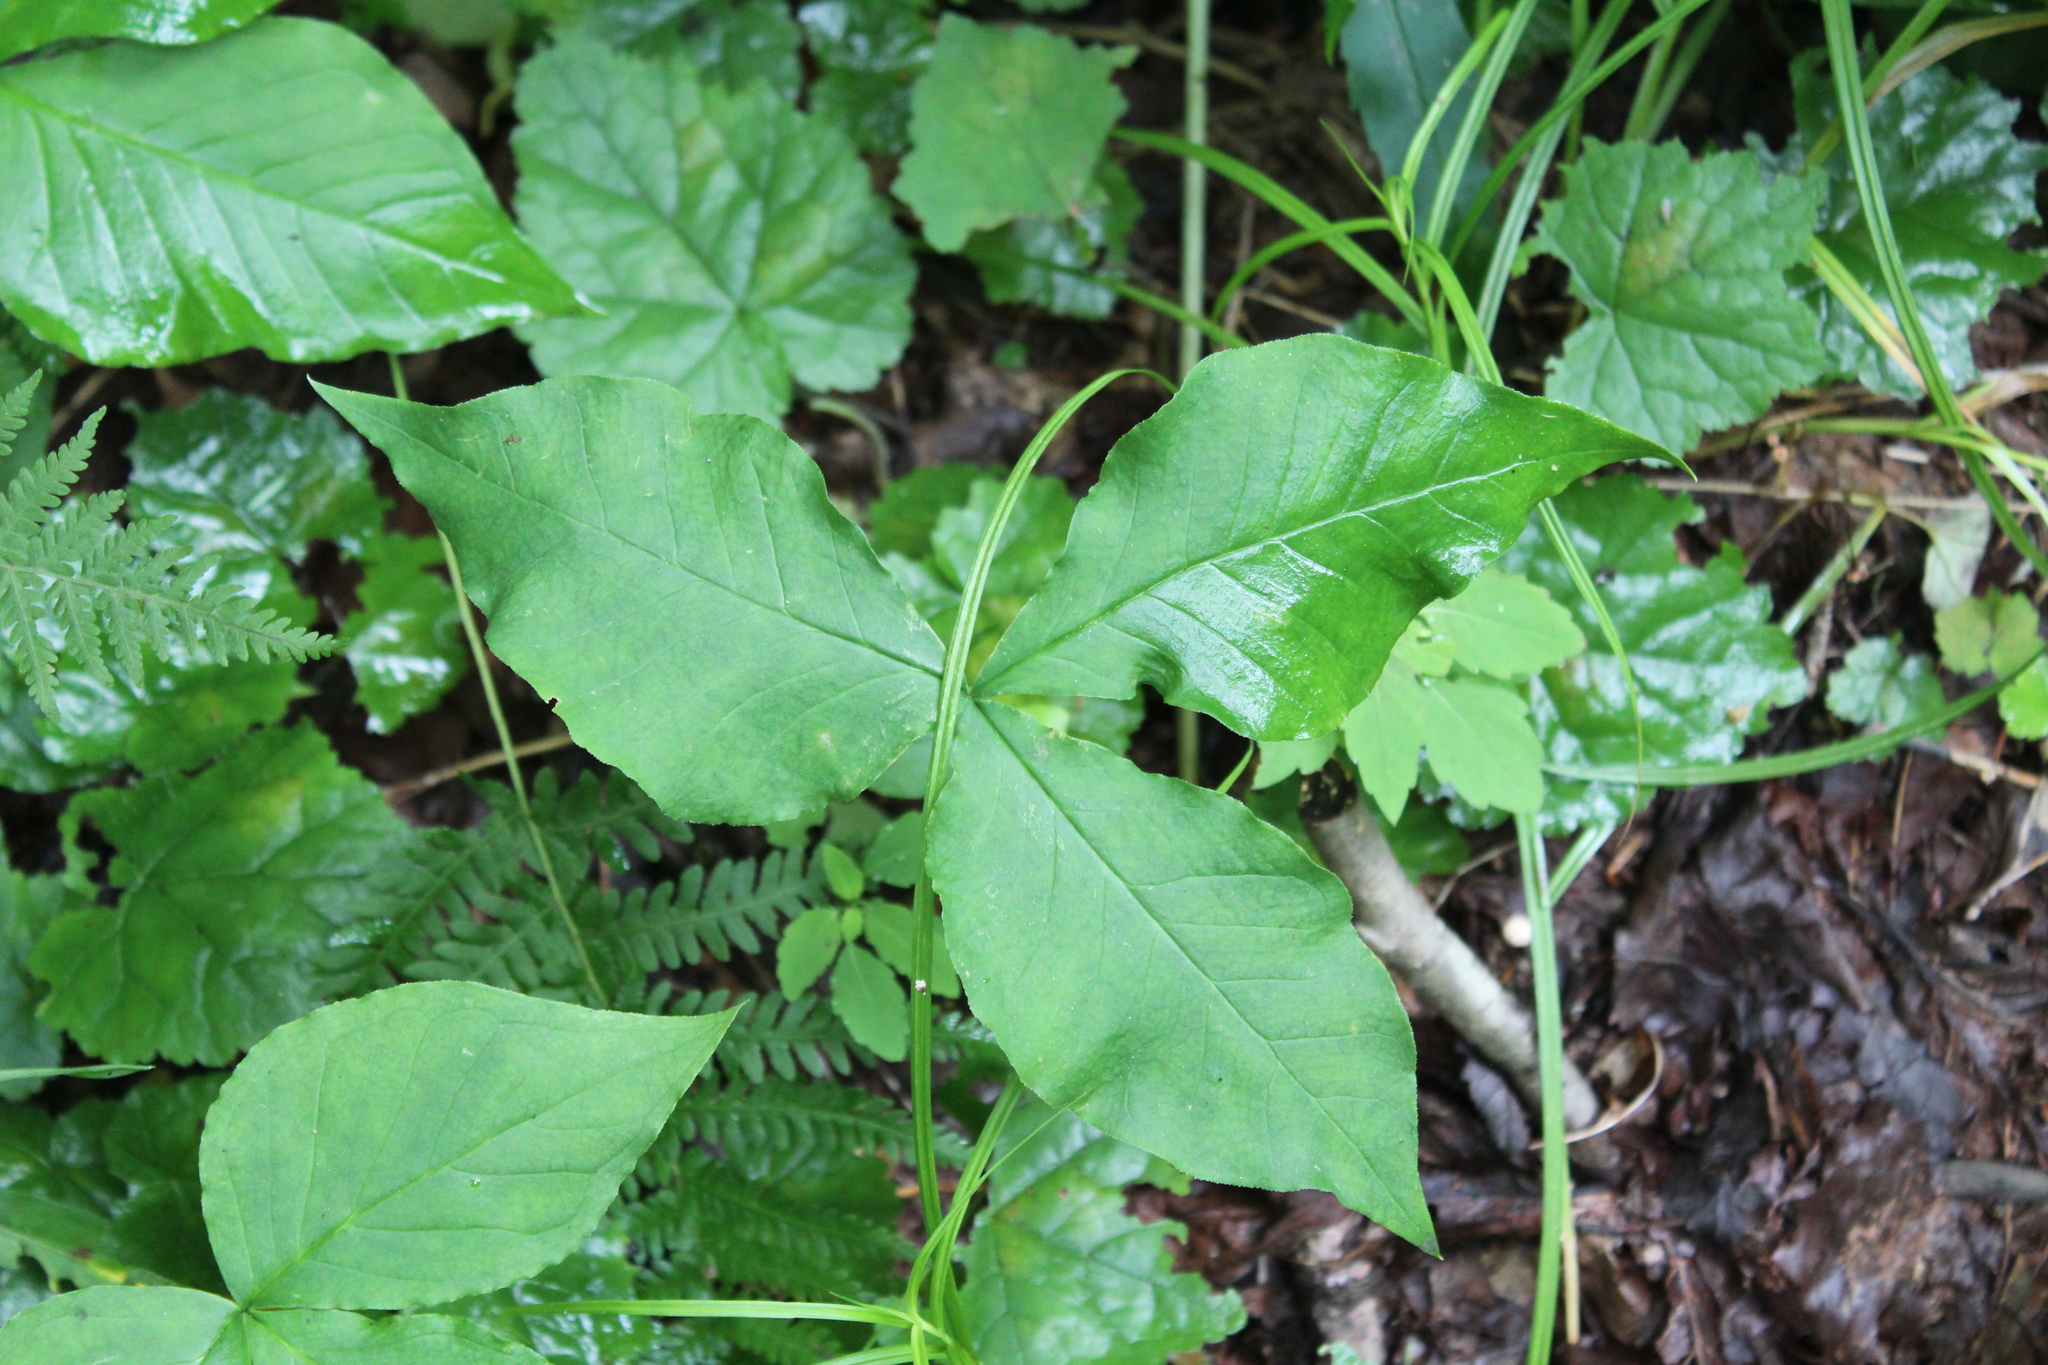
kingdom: Plantae
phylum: Tracheophyta
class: Liliopsida
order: Alismatales
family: Araceae
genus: Arisaema
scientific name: Arisaema triphyllum
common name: Jack-in-the-pulpit
